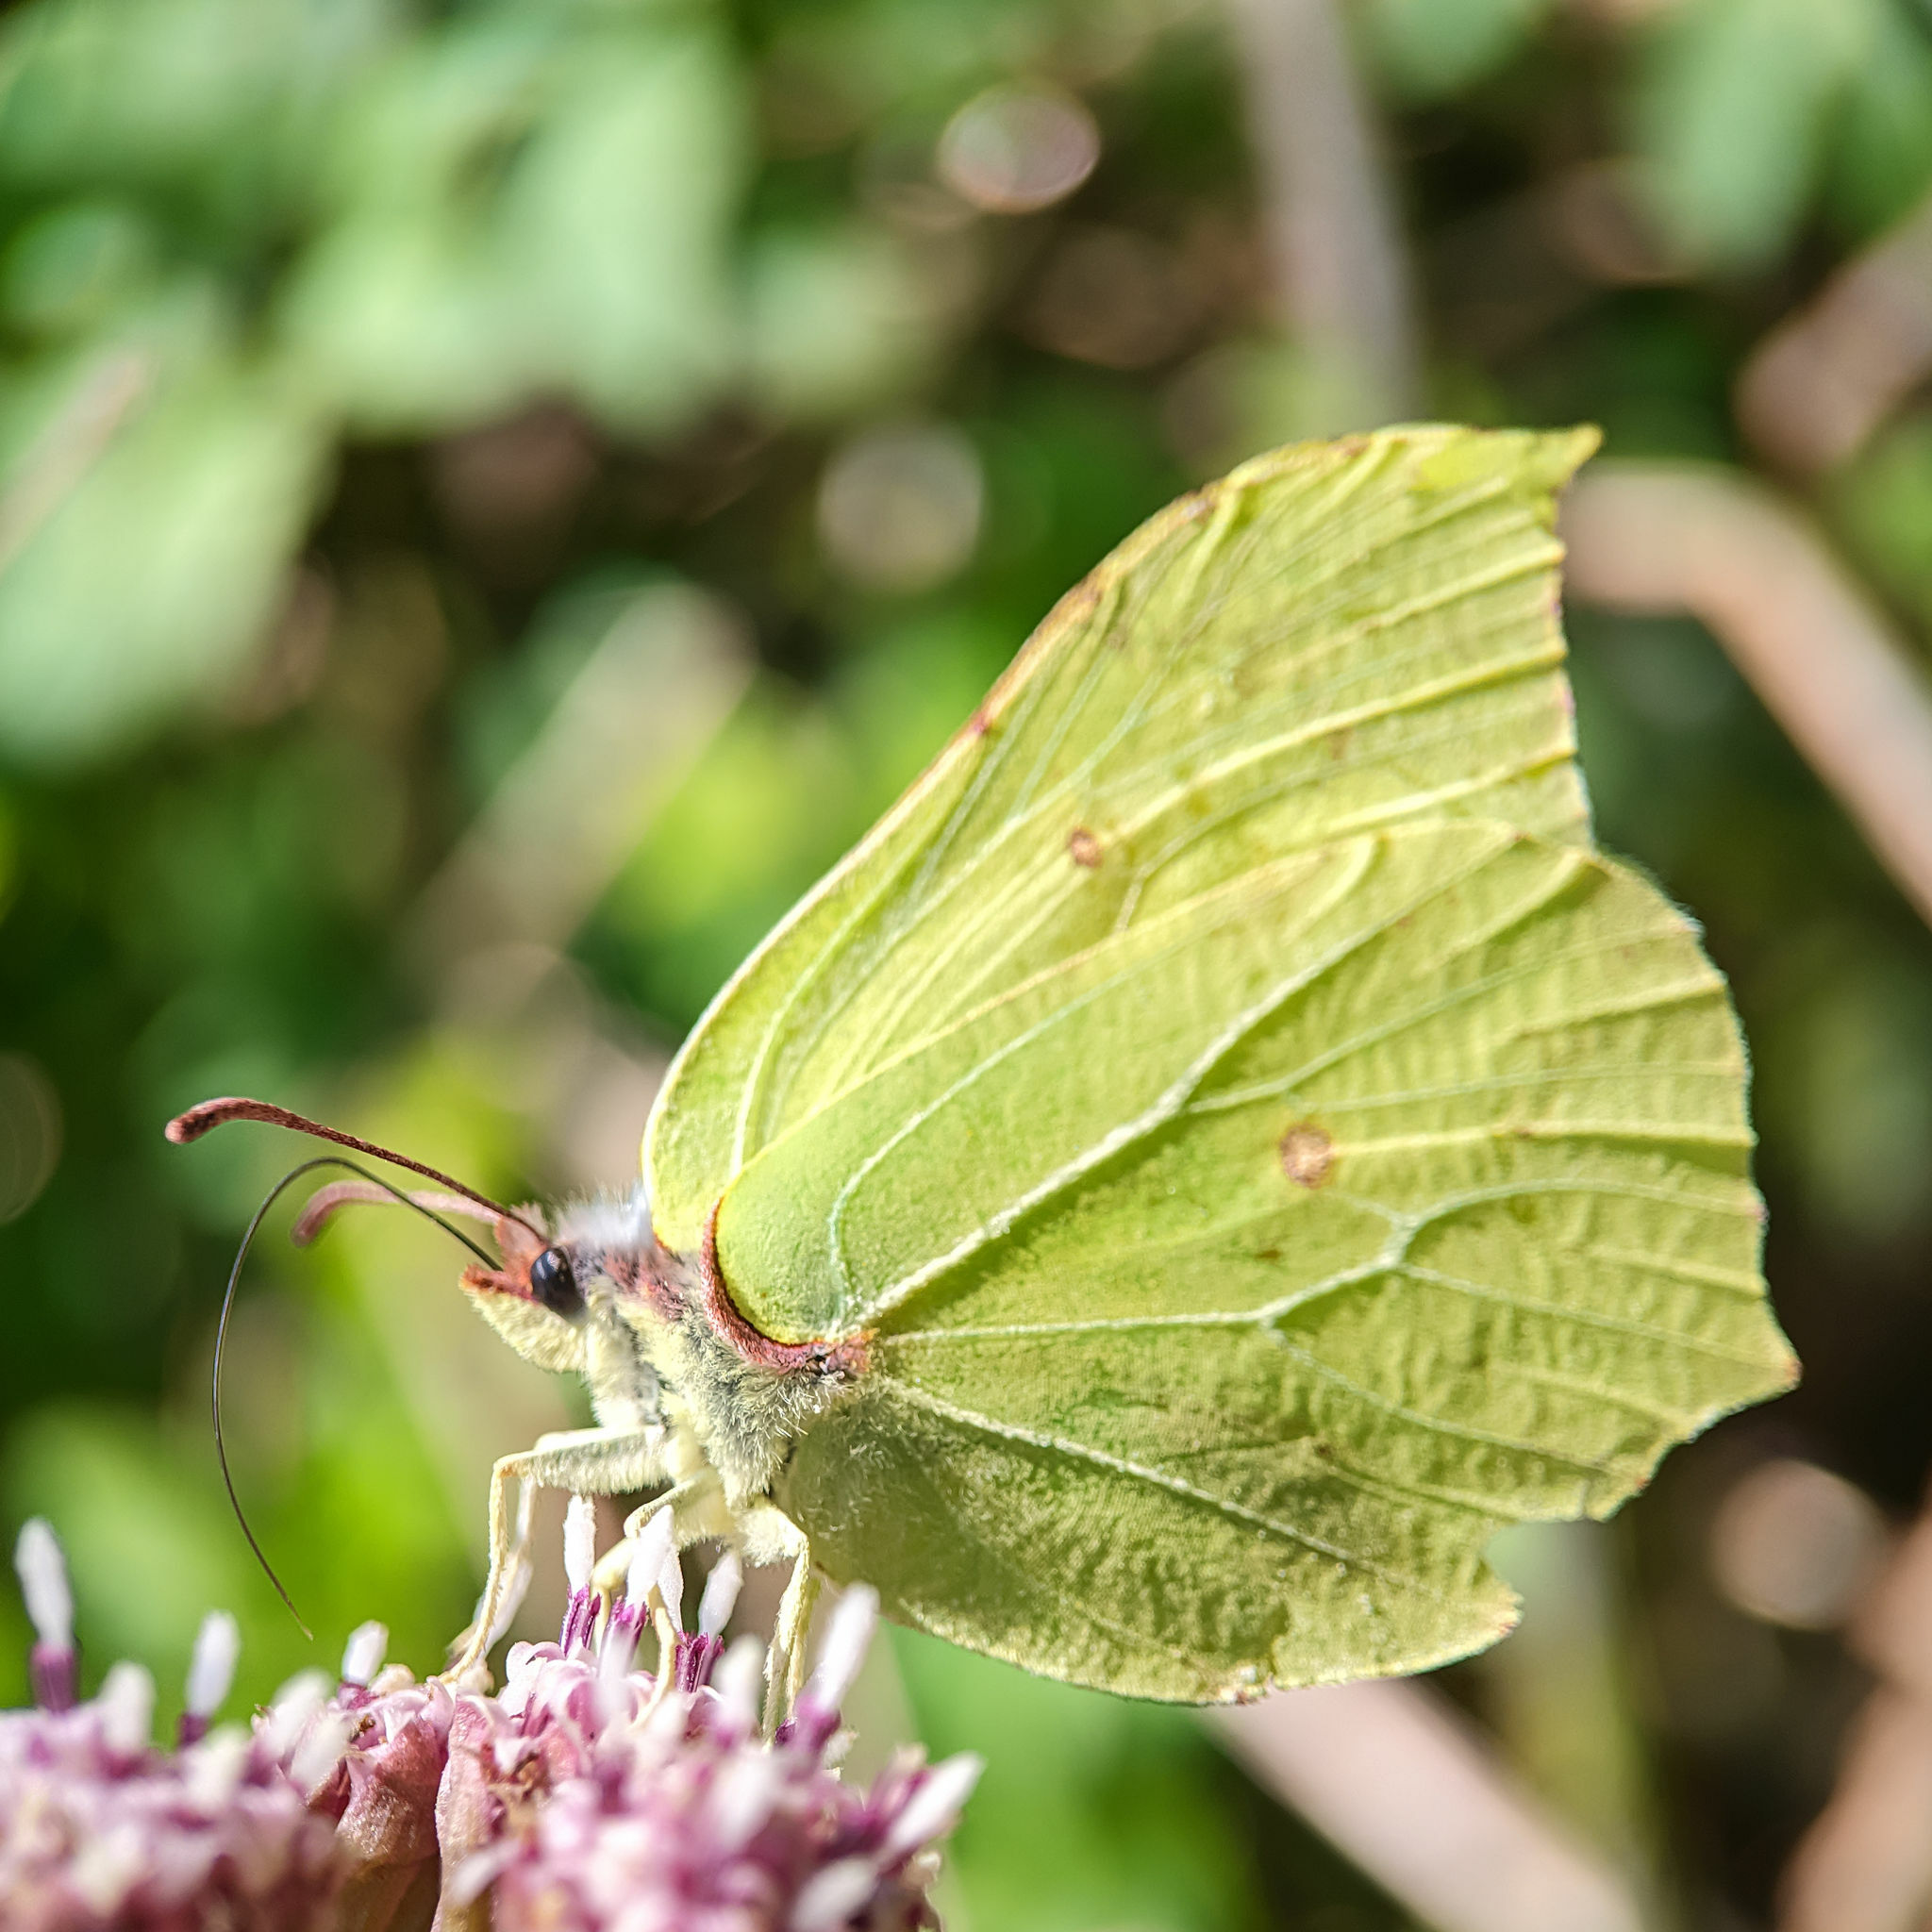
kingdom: Animalia
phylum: Arthropoda
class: Insecta
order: Lepidoptera
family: Pieridae
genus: Gonepteryx
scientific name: Gonepteryx rhamni
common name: Brimstone
